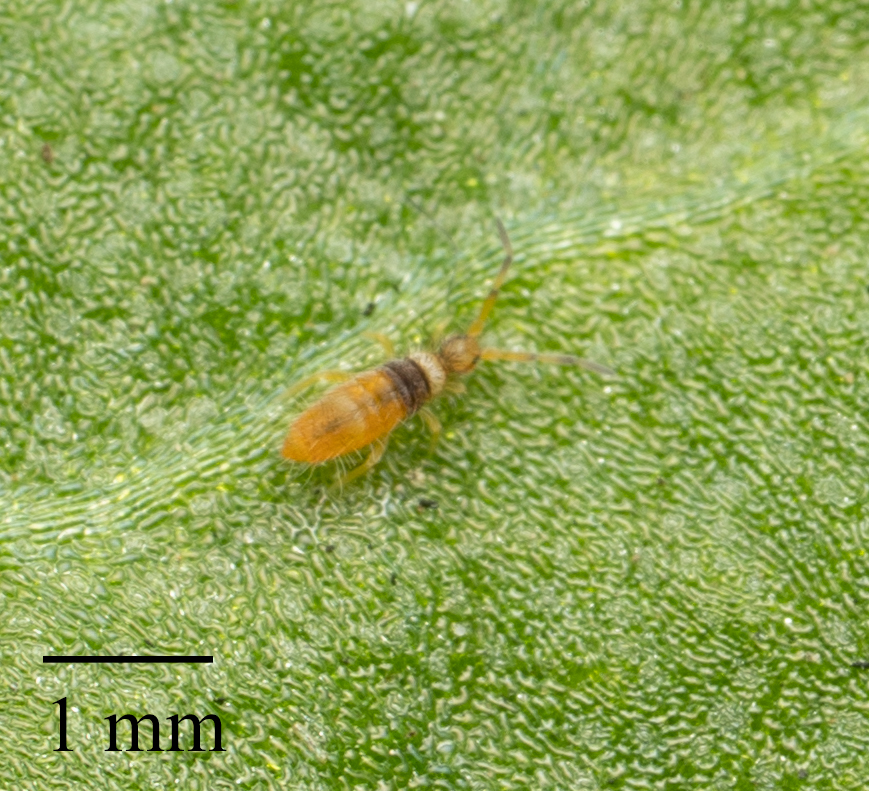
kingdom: Animalia
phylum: Arthropoda
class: Collembola
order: Entomobryomorpha
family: Entomobryidae
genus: Entomobrya
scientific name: Entomobrya atrocincta
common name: Springtail
